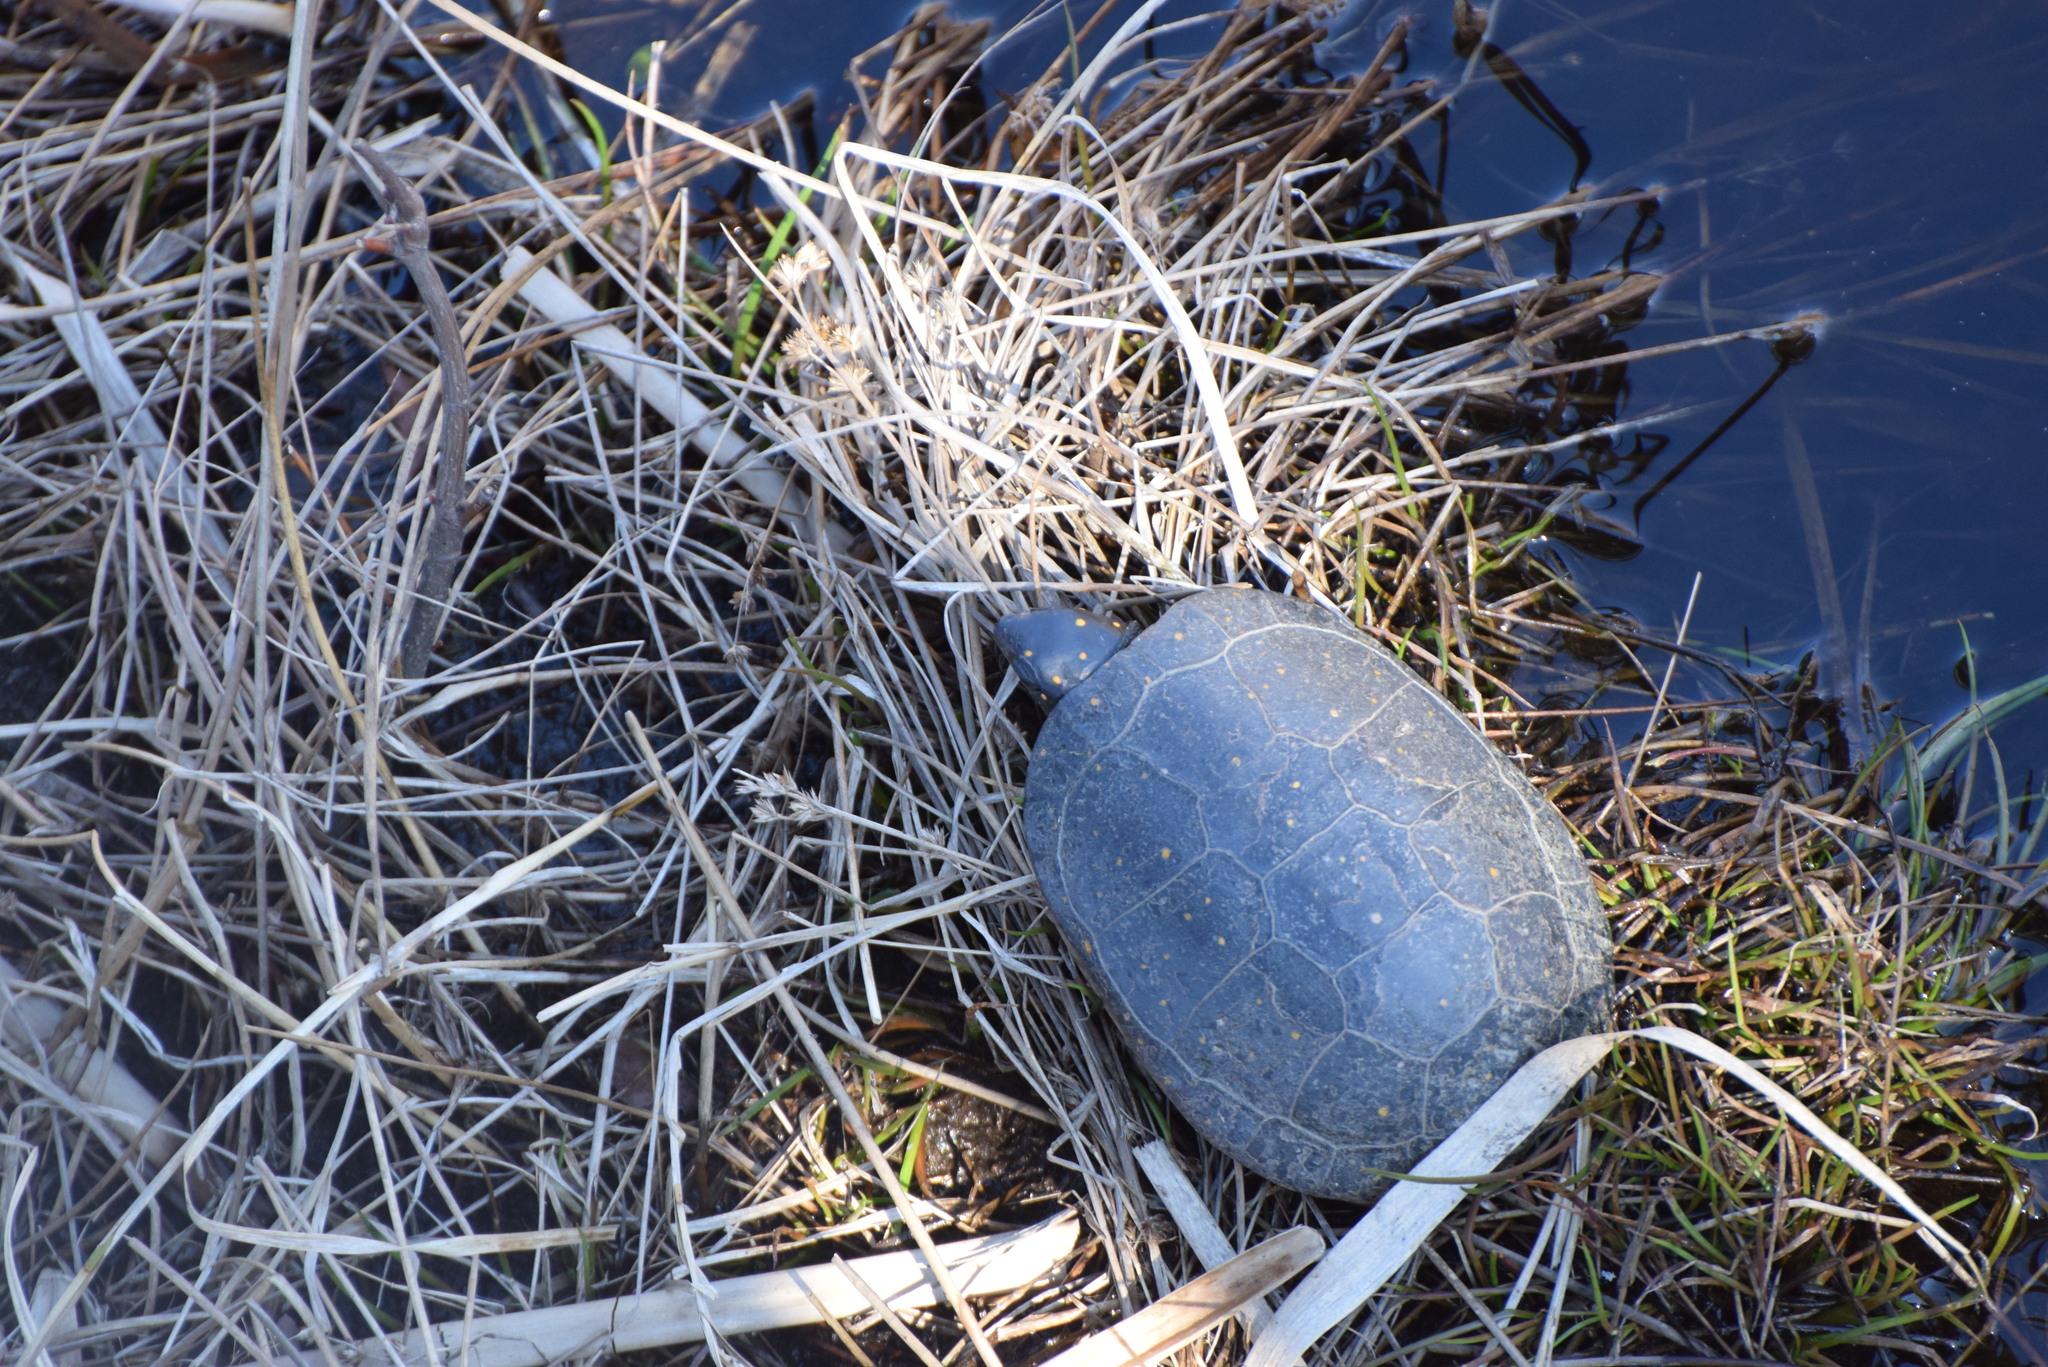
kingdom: Animalia
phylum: Chordata
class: Testudines
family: Emydidae
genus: Clemmys
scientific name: Clemmys guttata
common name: Spotted turtle
